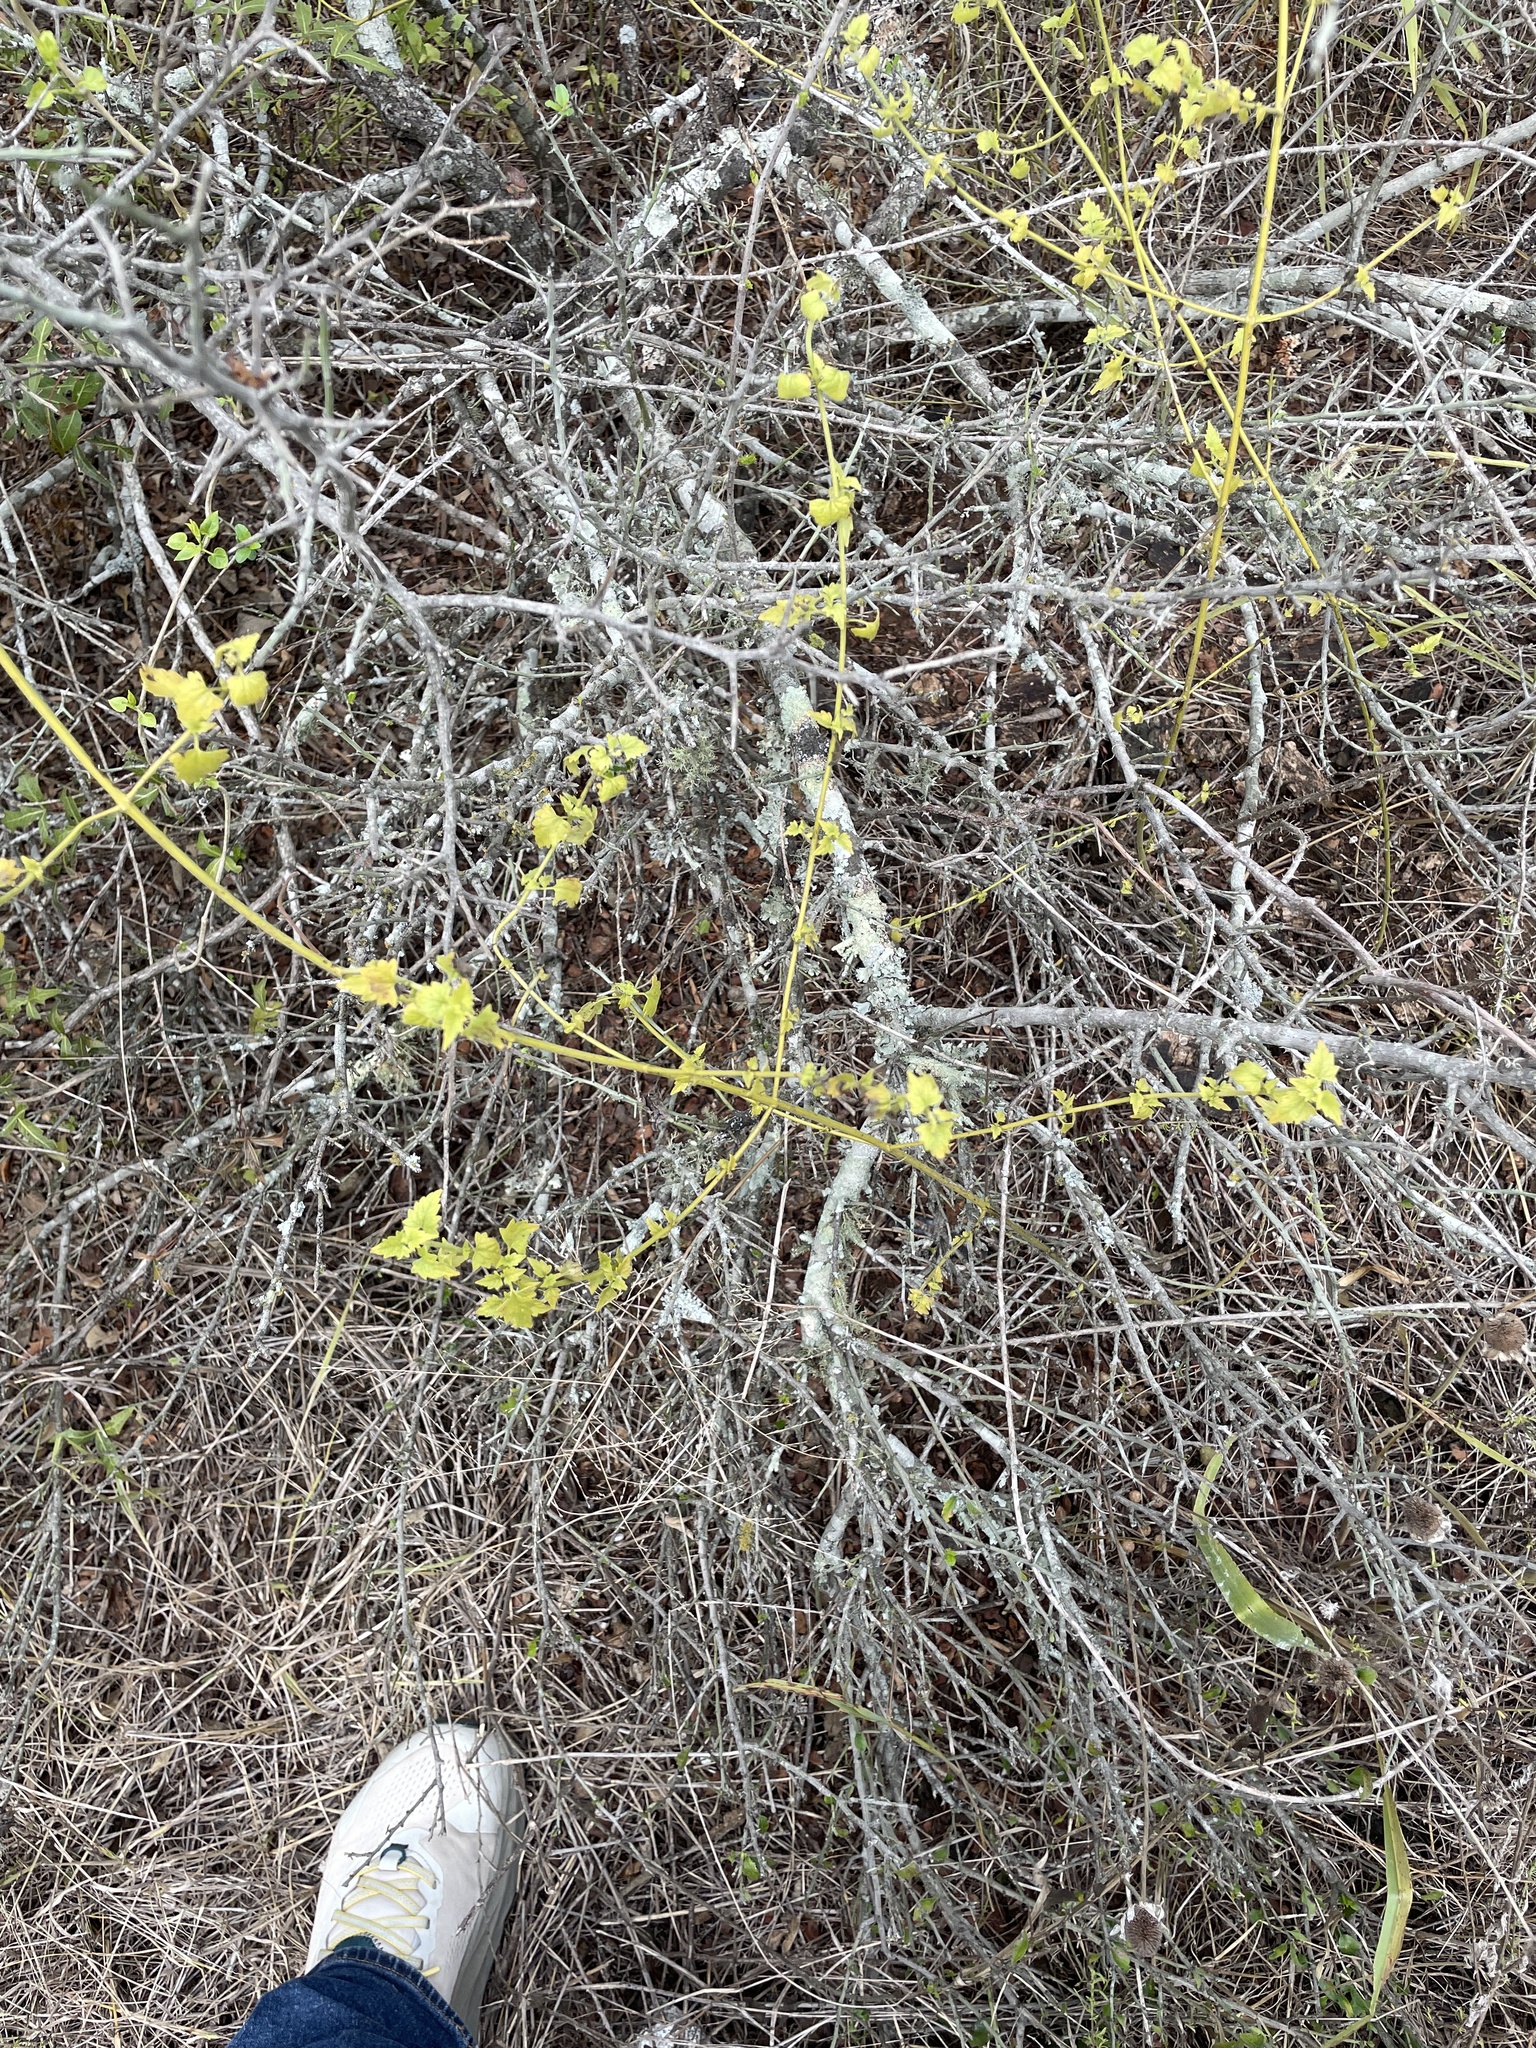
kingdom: Plantae
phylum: Tracheophyta
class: Magnoliopsida
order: Asterales
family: Asteraceae
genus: Fleischmannia
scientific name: Fleischmannia incarnata
